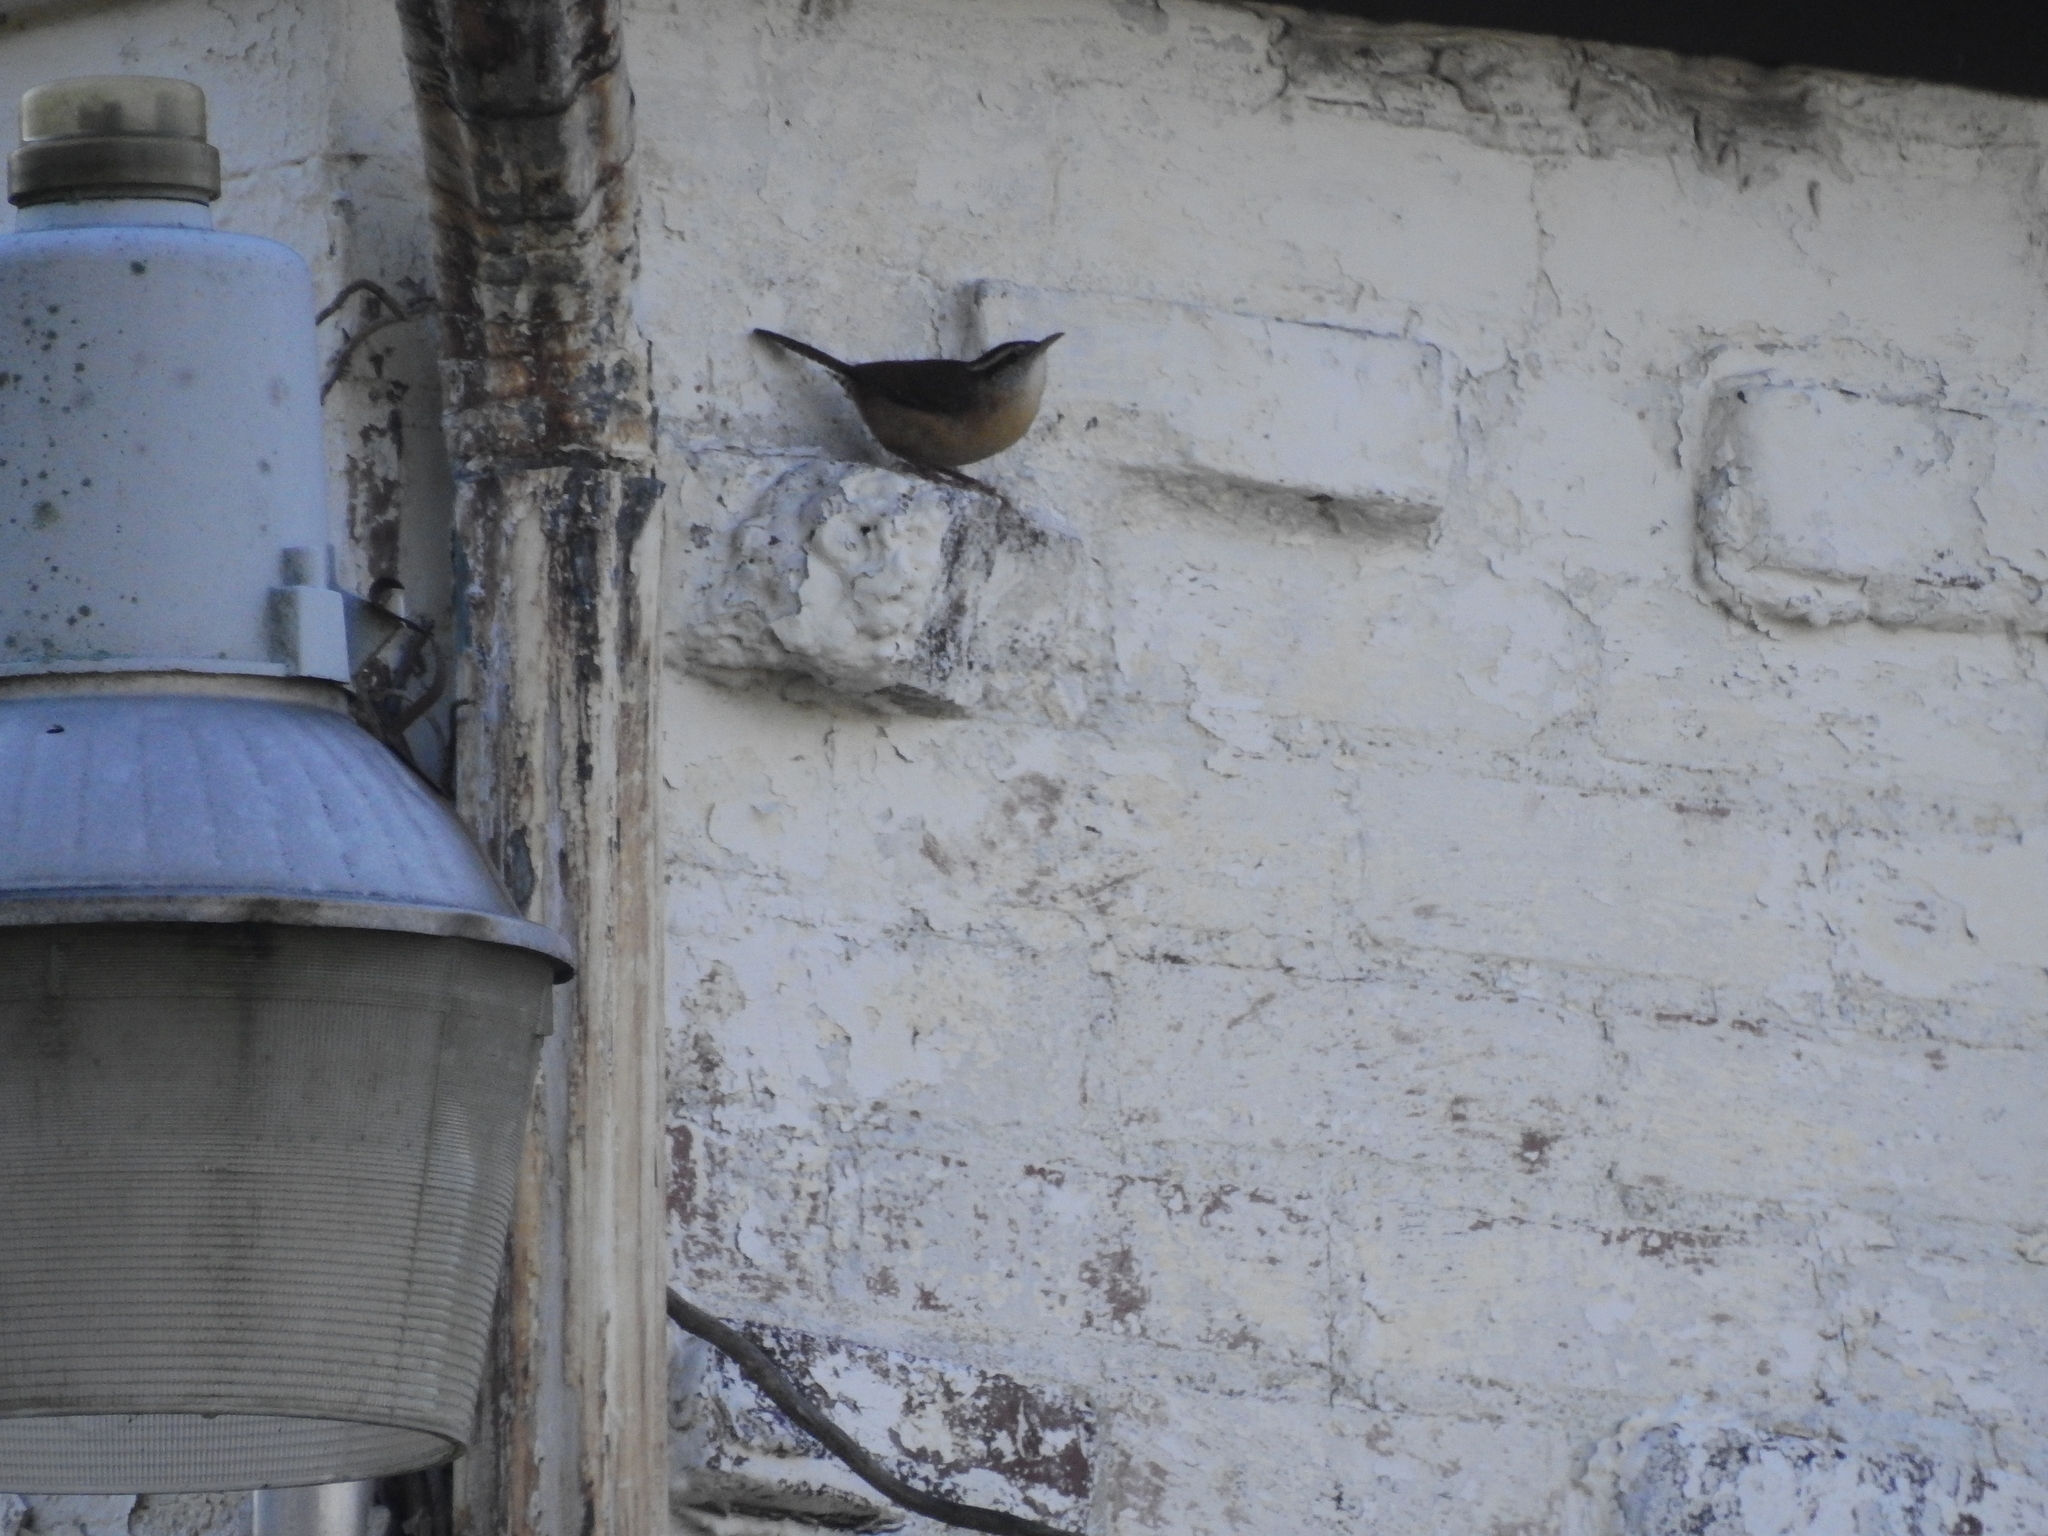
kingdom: Animalia
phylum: Chordata
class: Aves
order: Passeriformes
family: Troglodytidae
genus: Thryothorus
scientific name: Thryothorus ludovicianus
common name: Carolina wren
